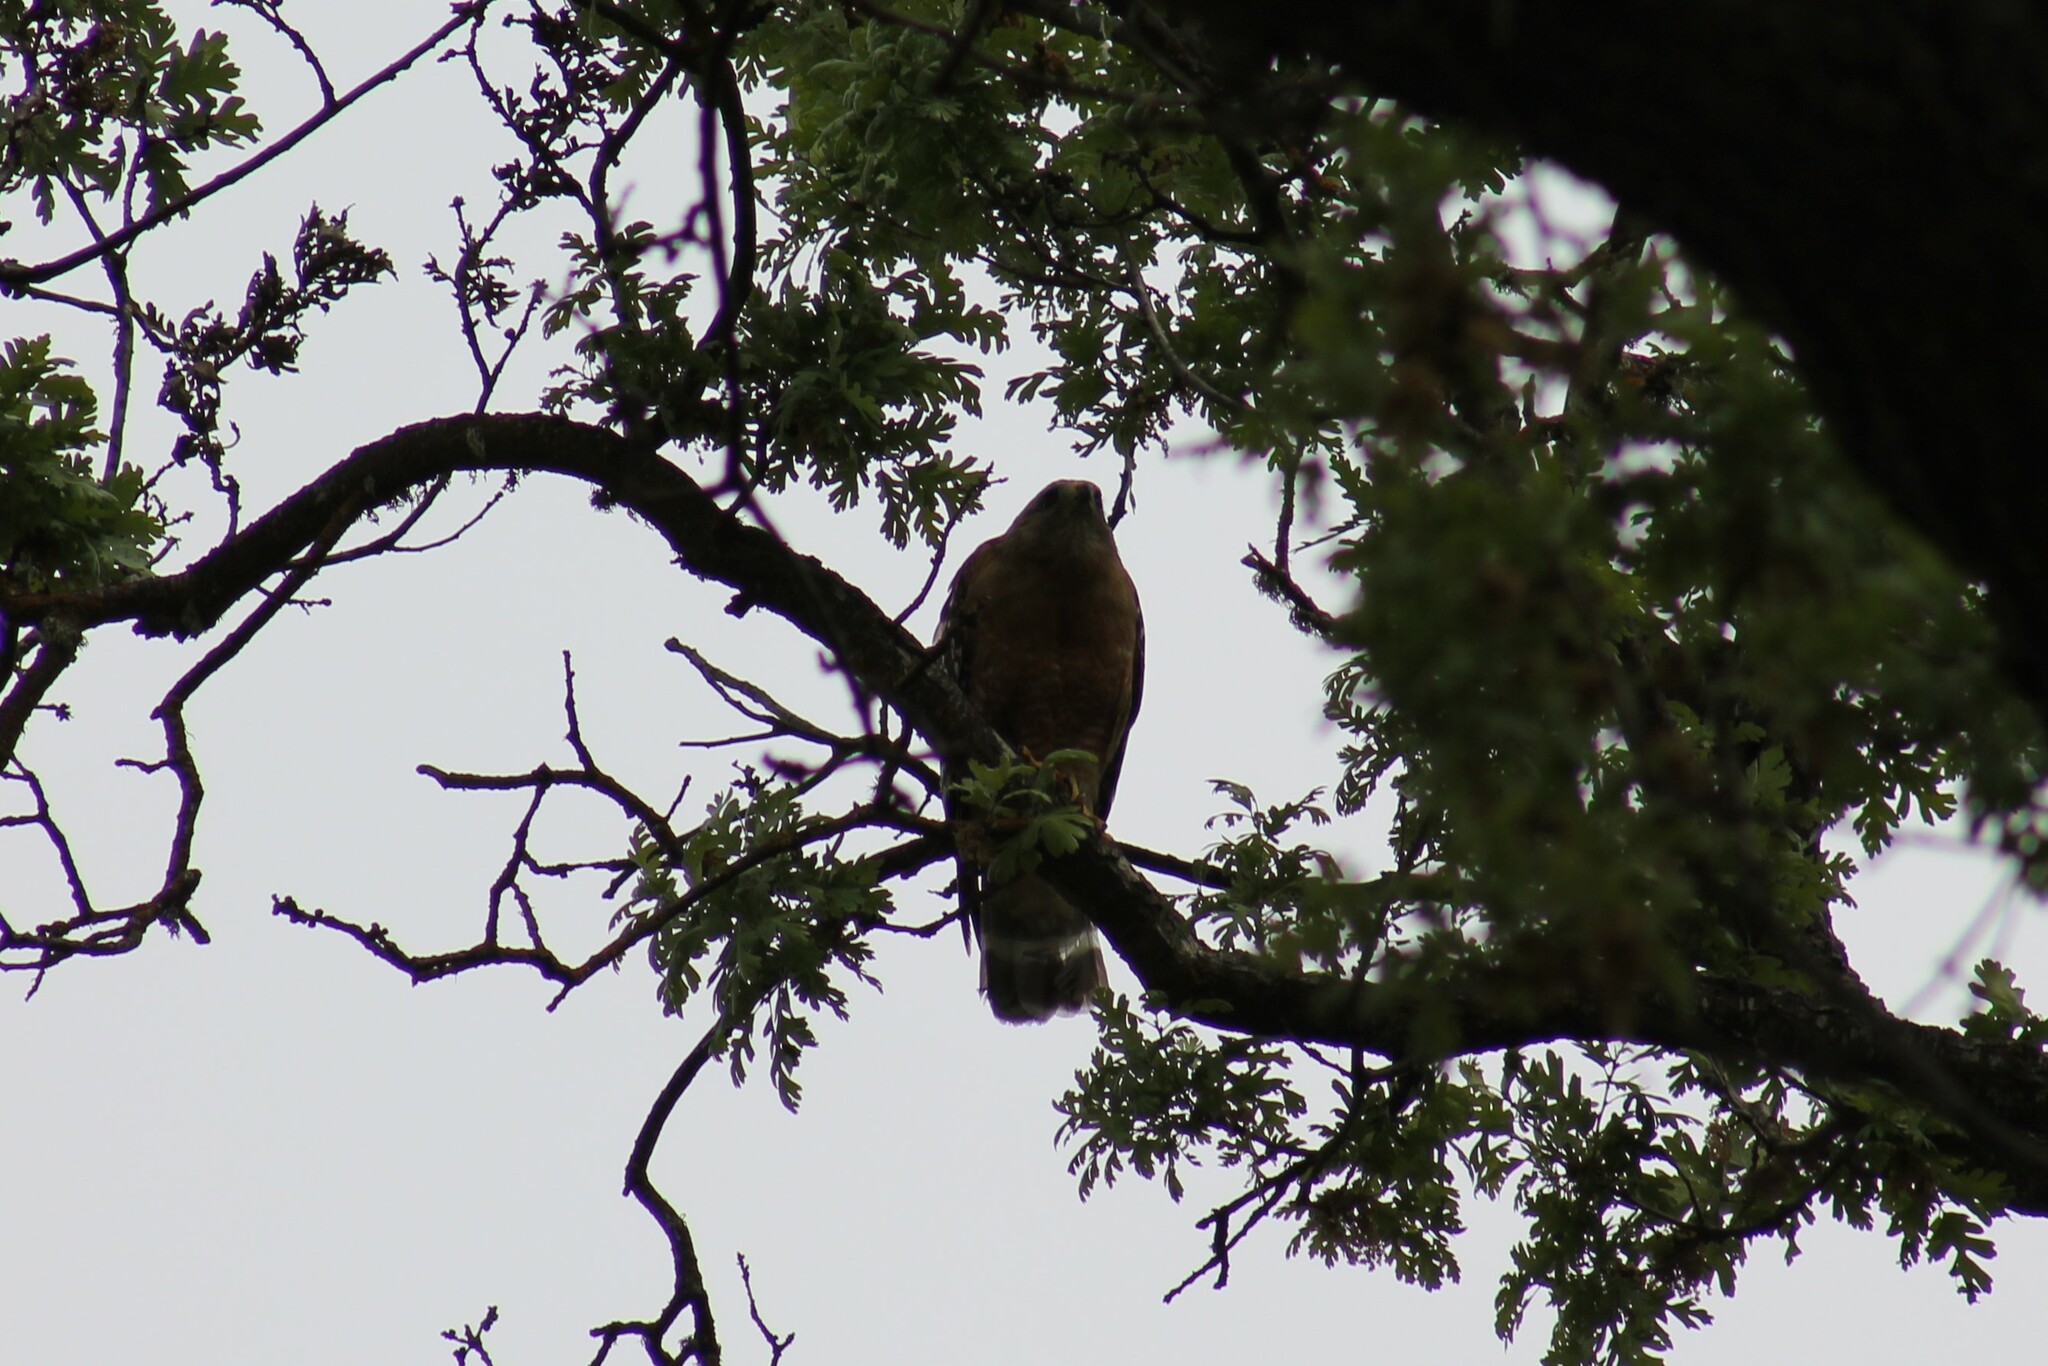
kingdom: Animalia
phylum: Chordata
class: Aves
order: Accipitriformes
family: Accipitridae
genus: Buteo
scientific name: Buteo lineatus
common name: Red-shouldered hawk
